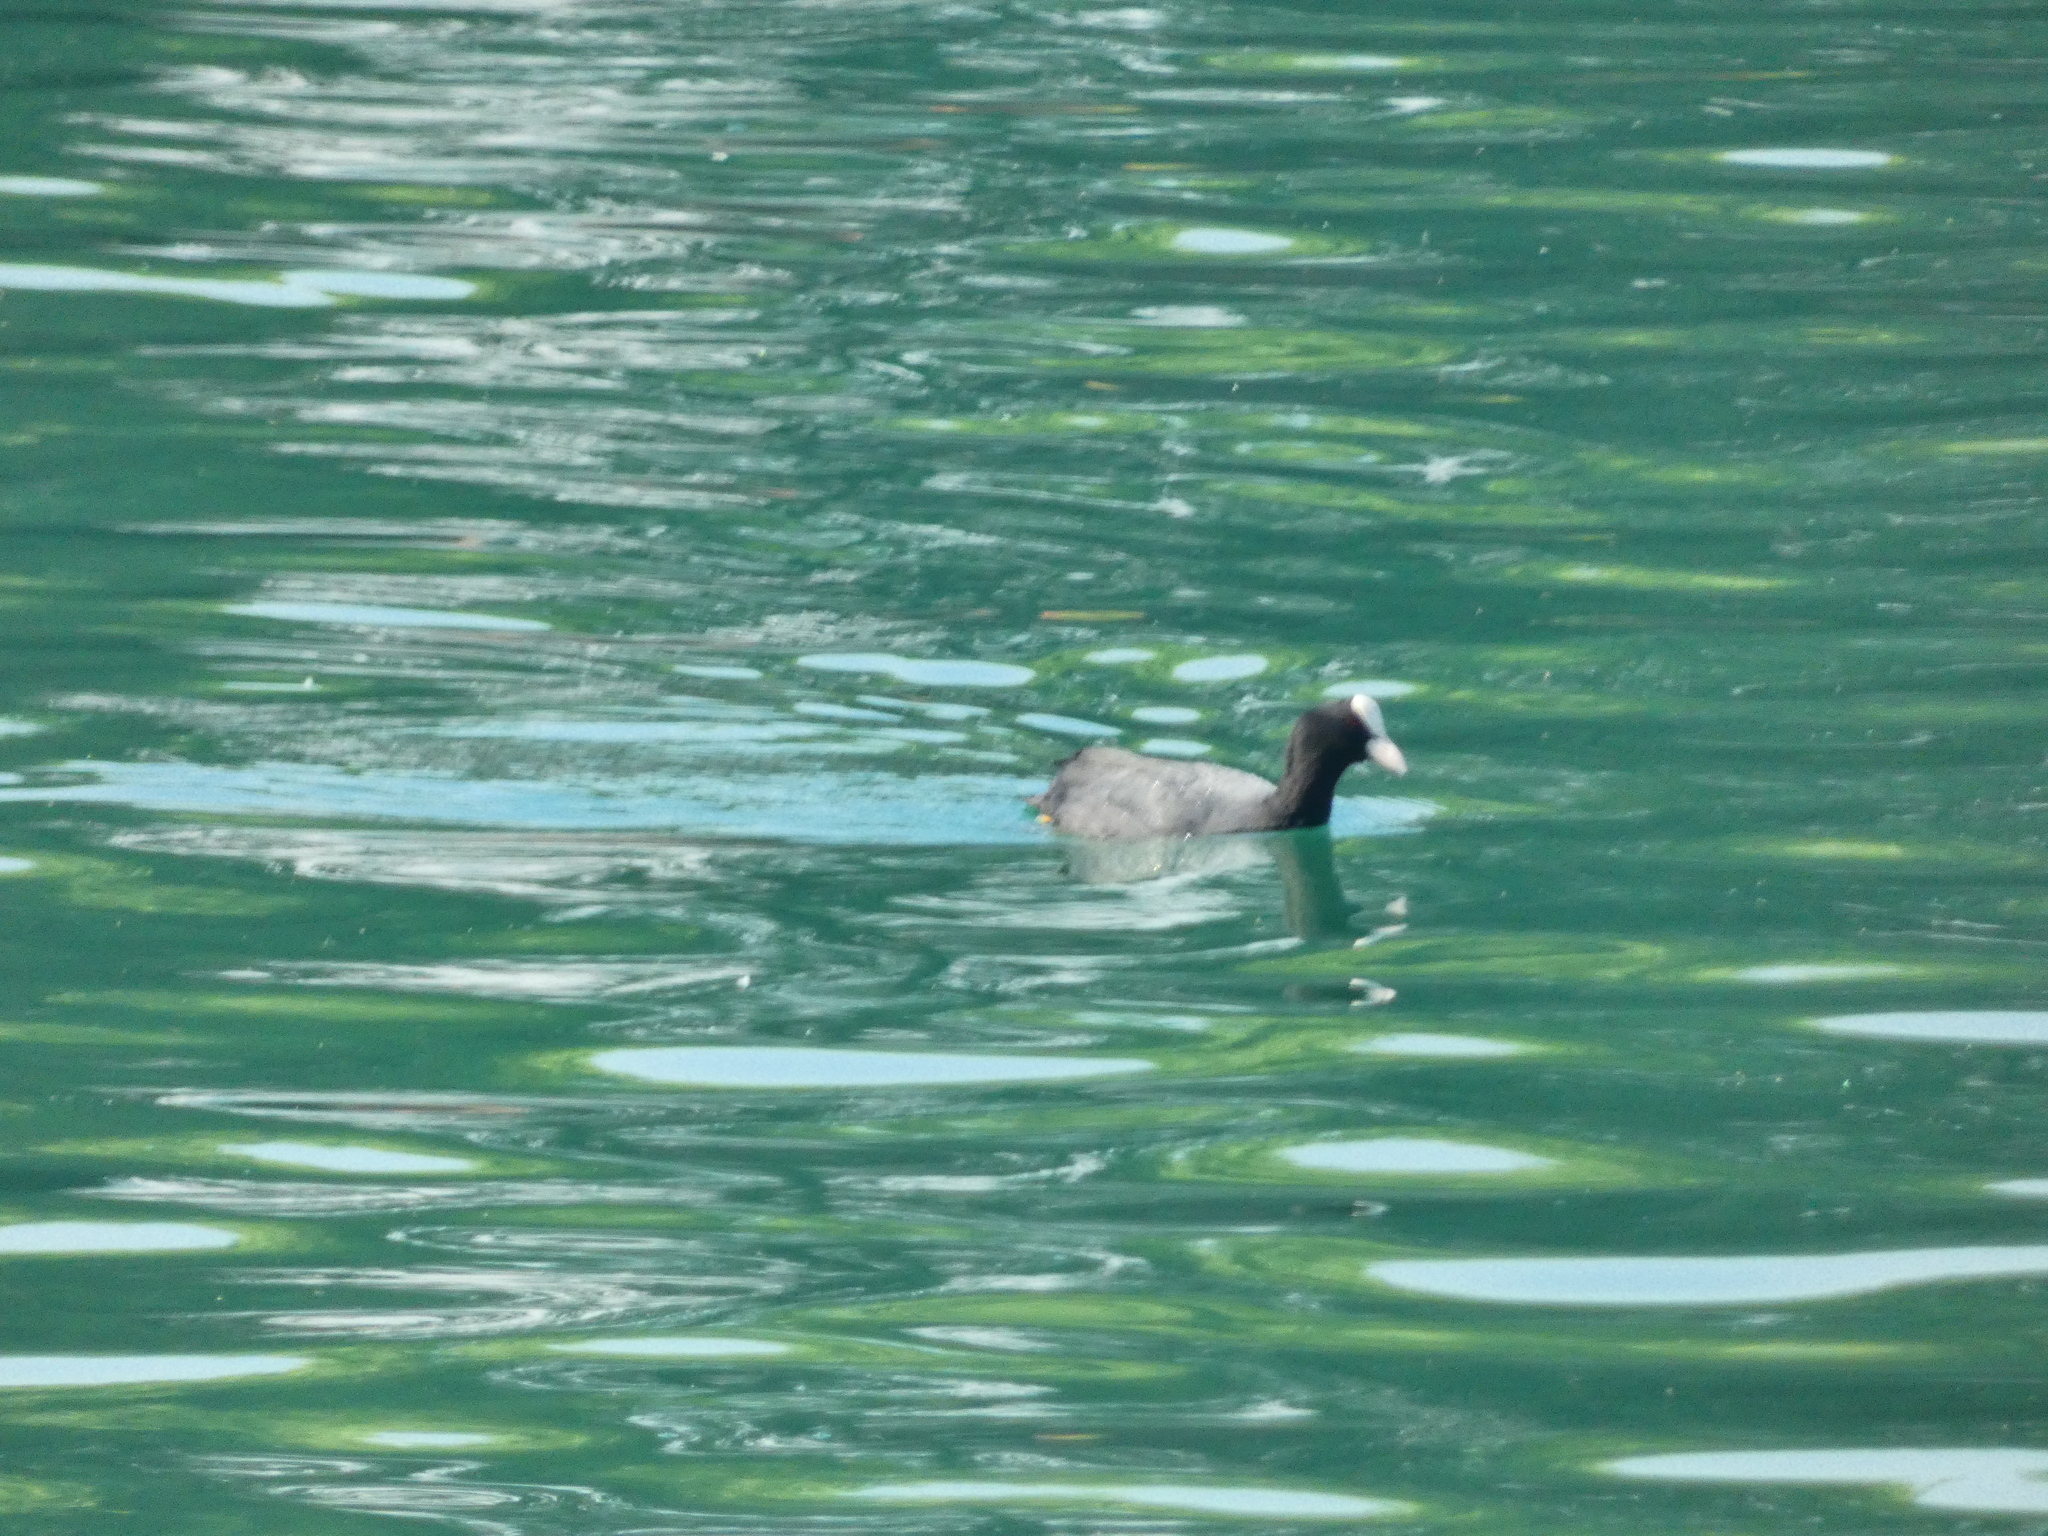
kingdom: Animalia
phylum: Chordata
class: Aves
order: Gruiformes
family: Rallidae
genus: Fulica
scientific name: Fulica atra
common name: Eurasian coot
